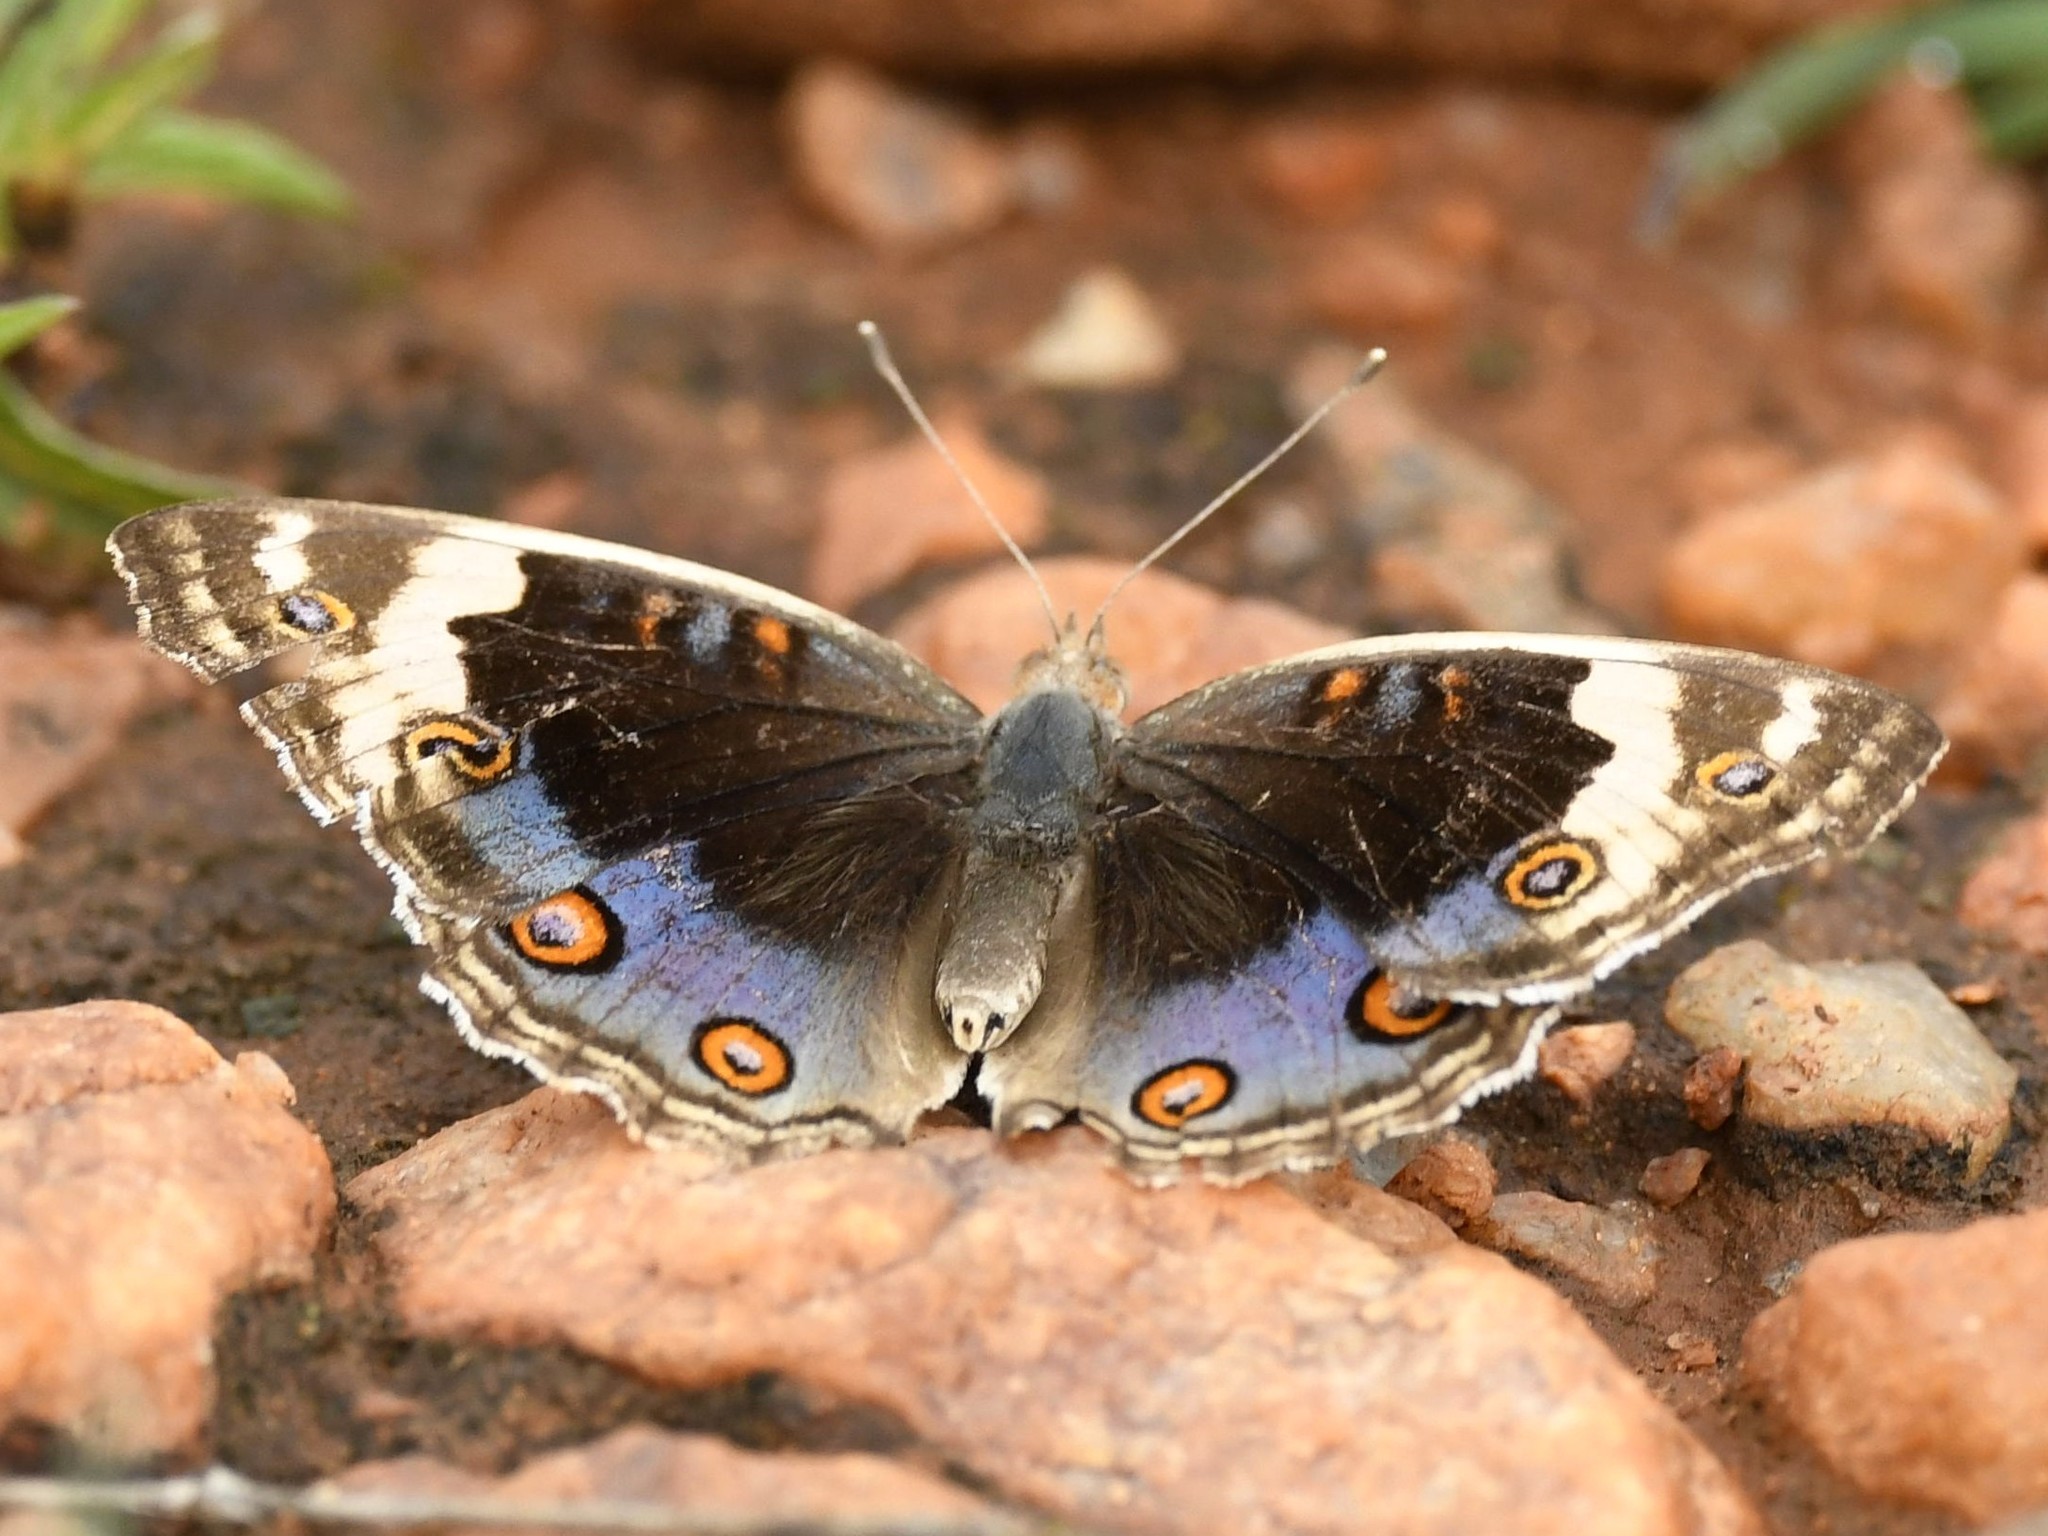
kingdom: Animalia
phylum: Arthropoda
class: Insecta
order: Lepidoptera
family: Nymphalidae
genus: Junonia
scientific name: Junonia orithya
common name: Blue pansy
